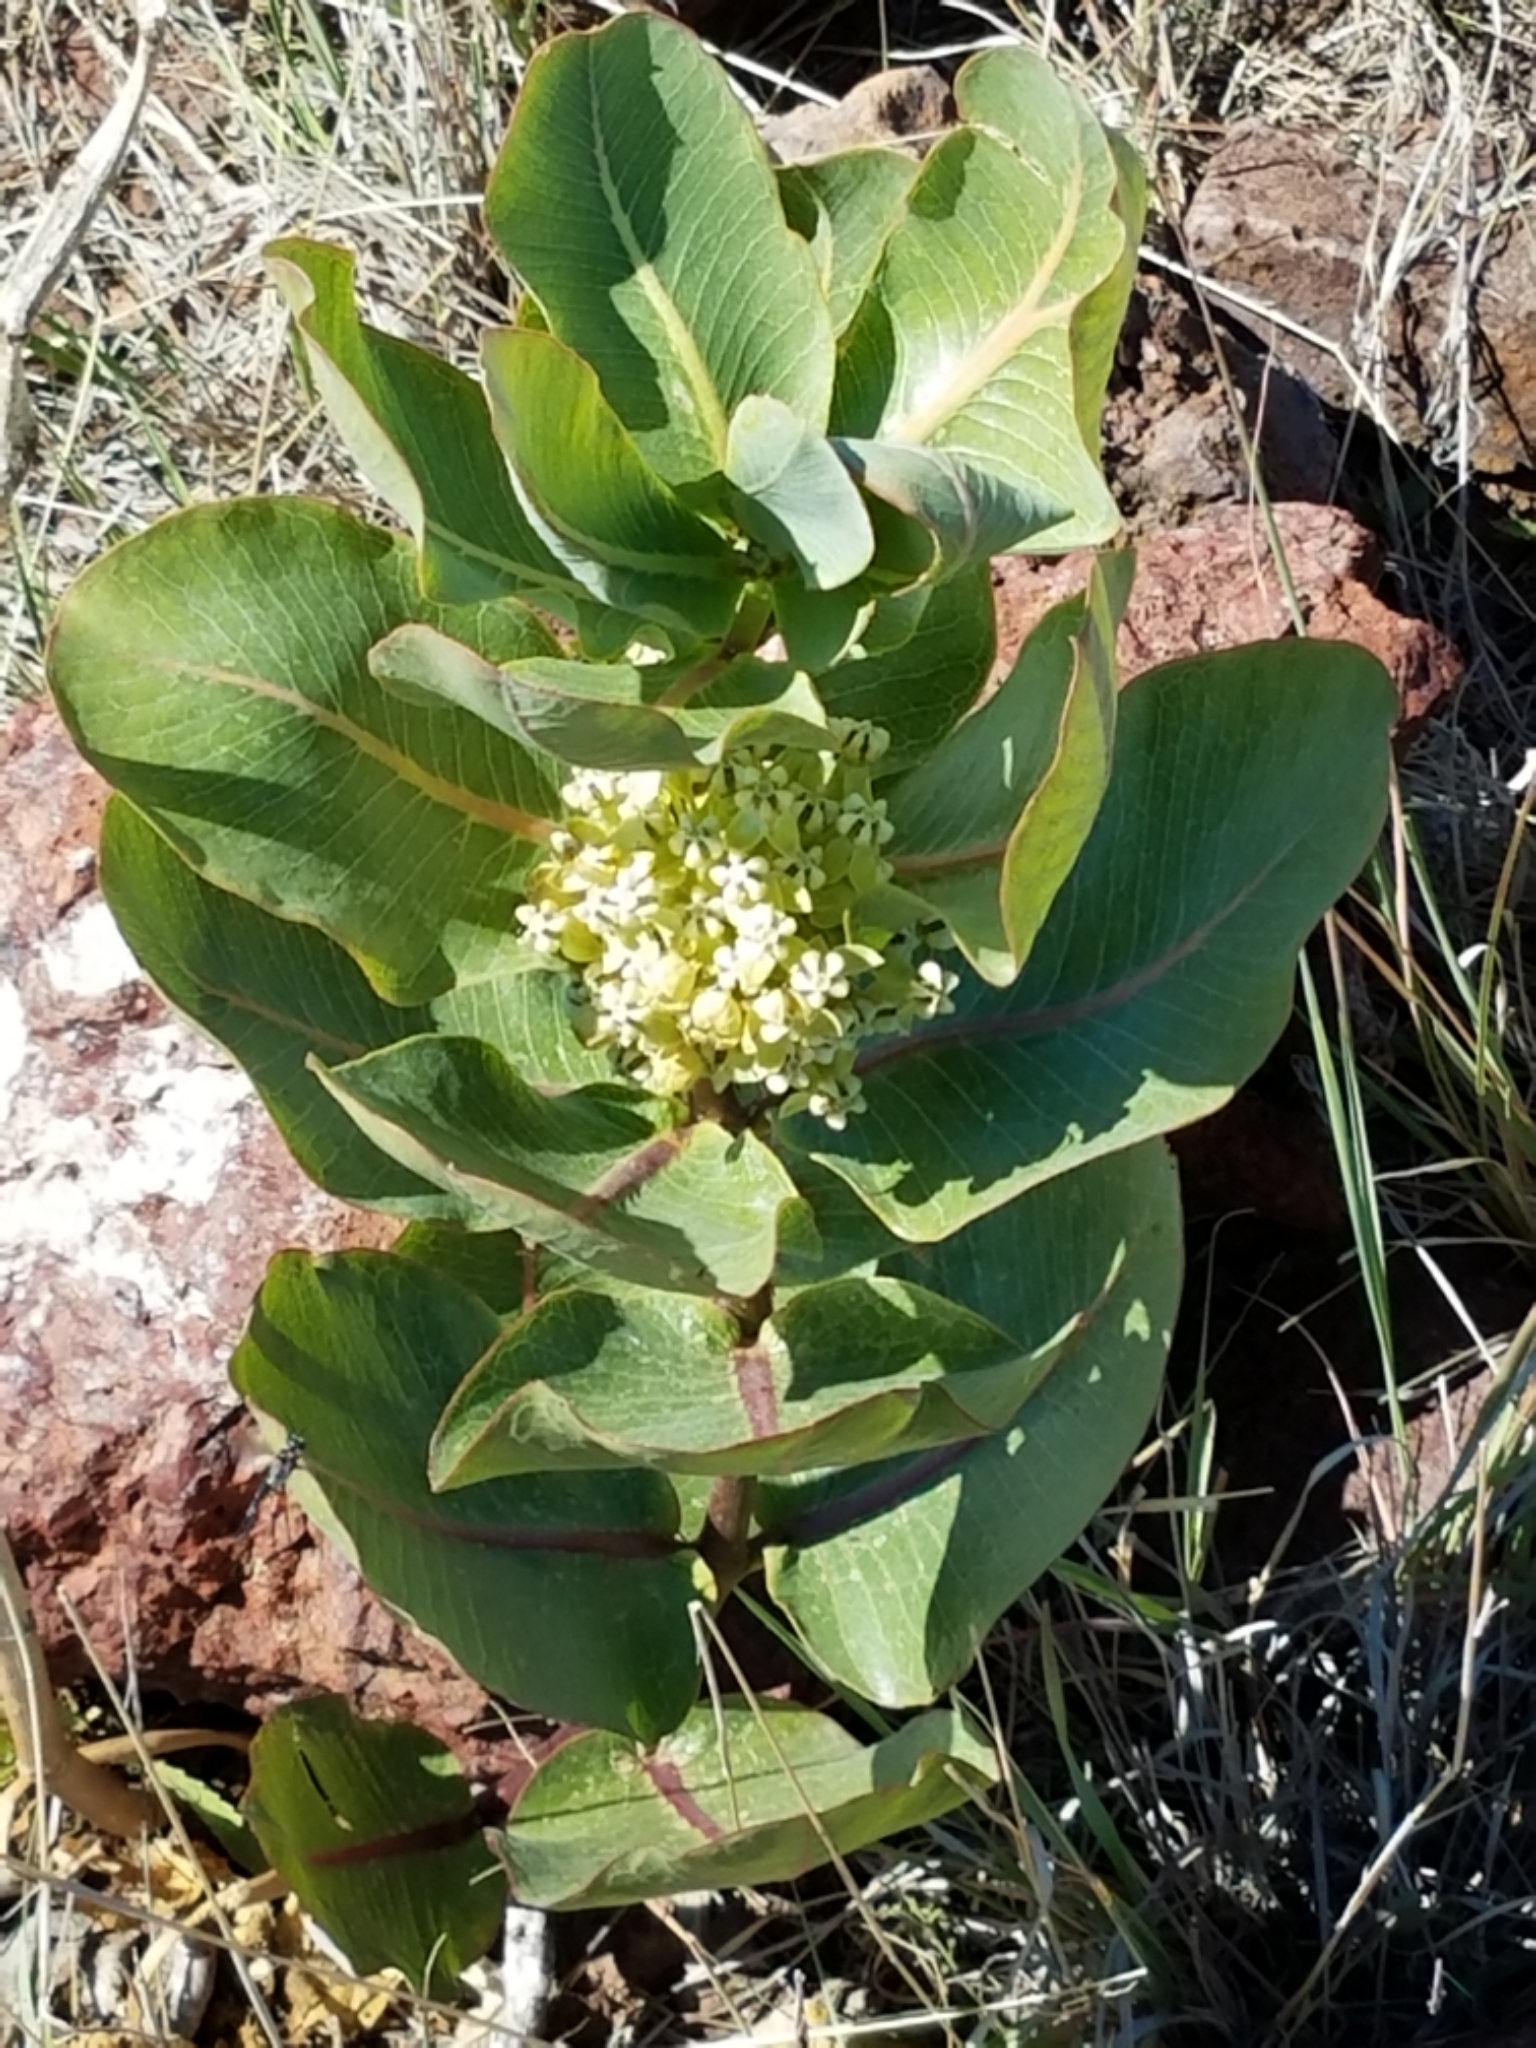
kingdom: Plantae
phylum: Tracheophyta
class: Magnoliopsida
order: Gentianales
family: Apocynaceae
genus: Asclepias
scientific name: Asclepias latifolia
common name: Broadleaf milkweed
